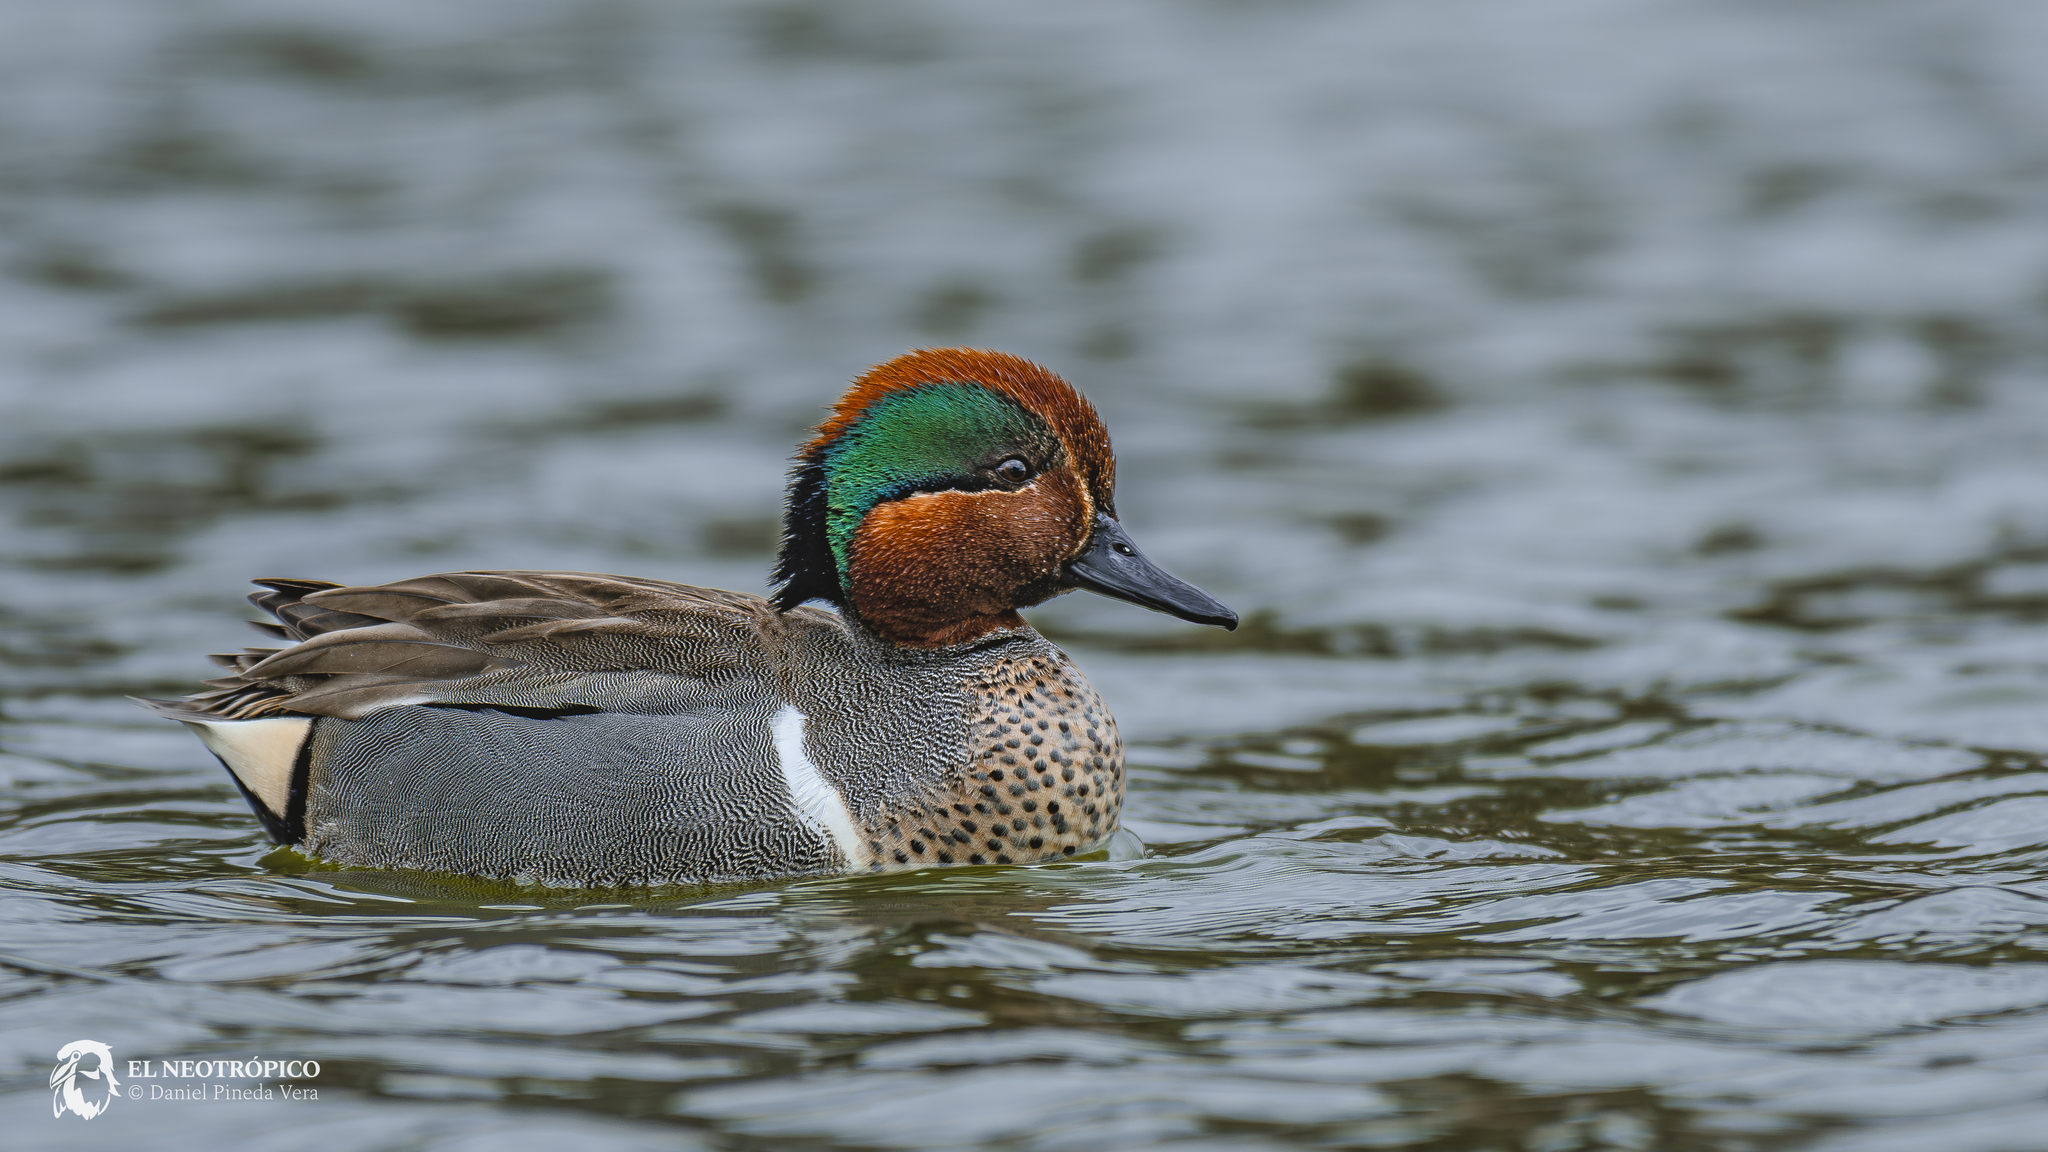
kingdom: Animalia
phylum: Chordata
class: Aves
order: Anseriformes
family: Anatidae
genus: Anas
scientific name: Anas crecca
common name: Eurasian teal
